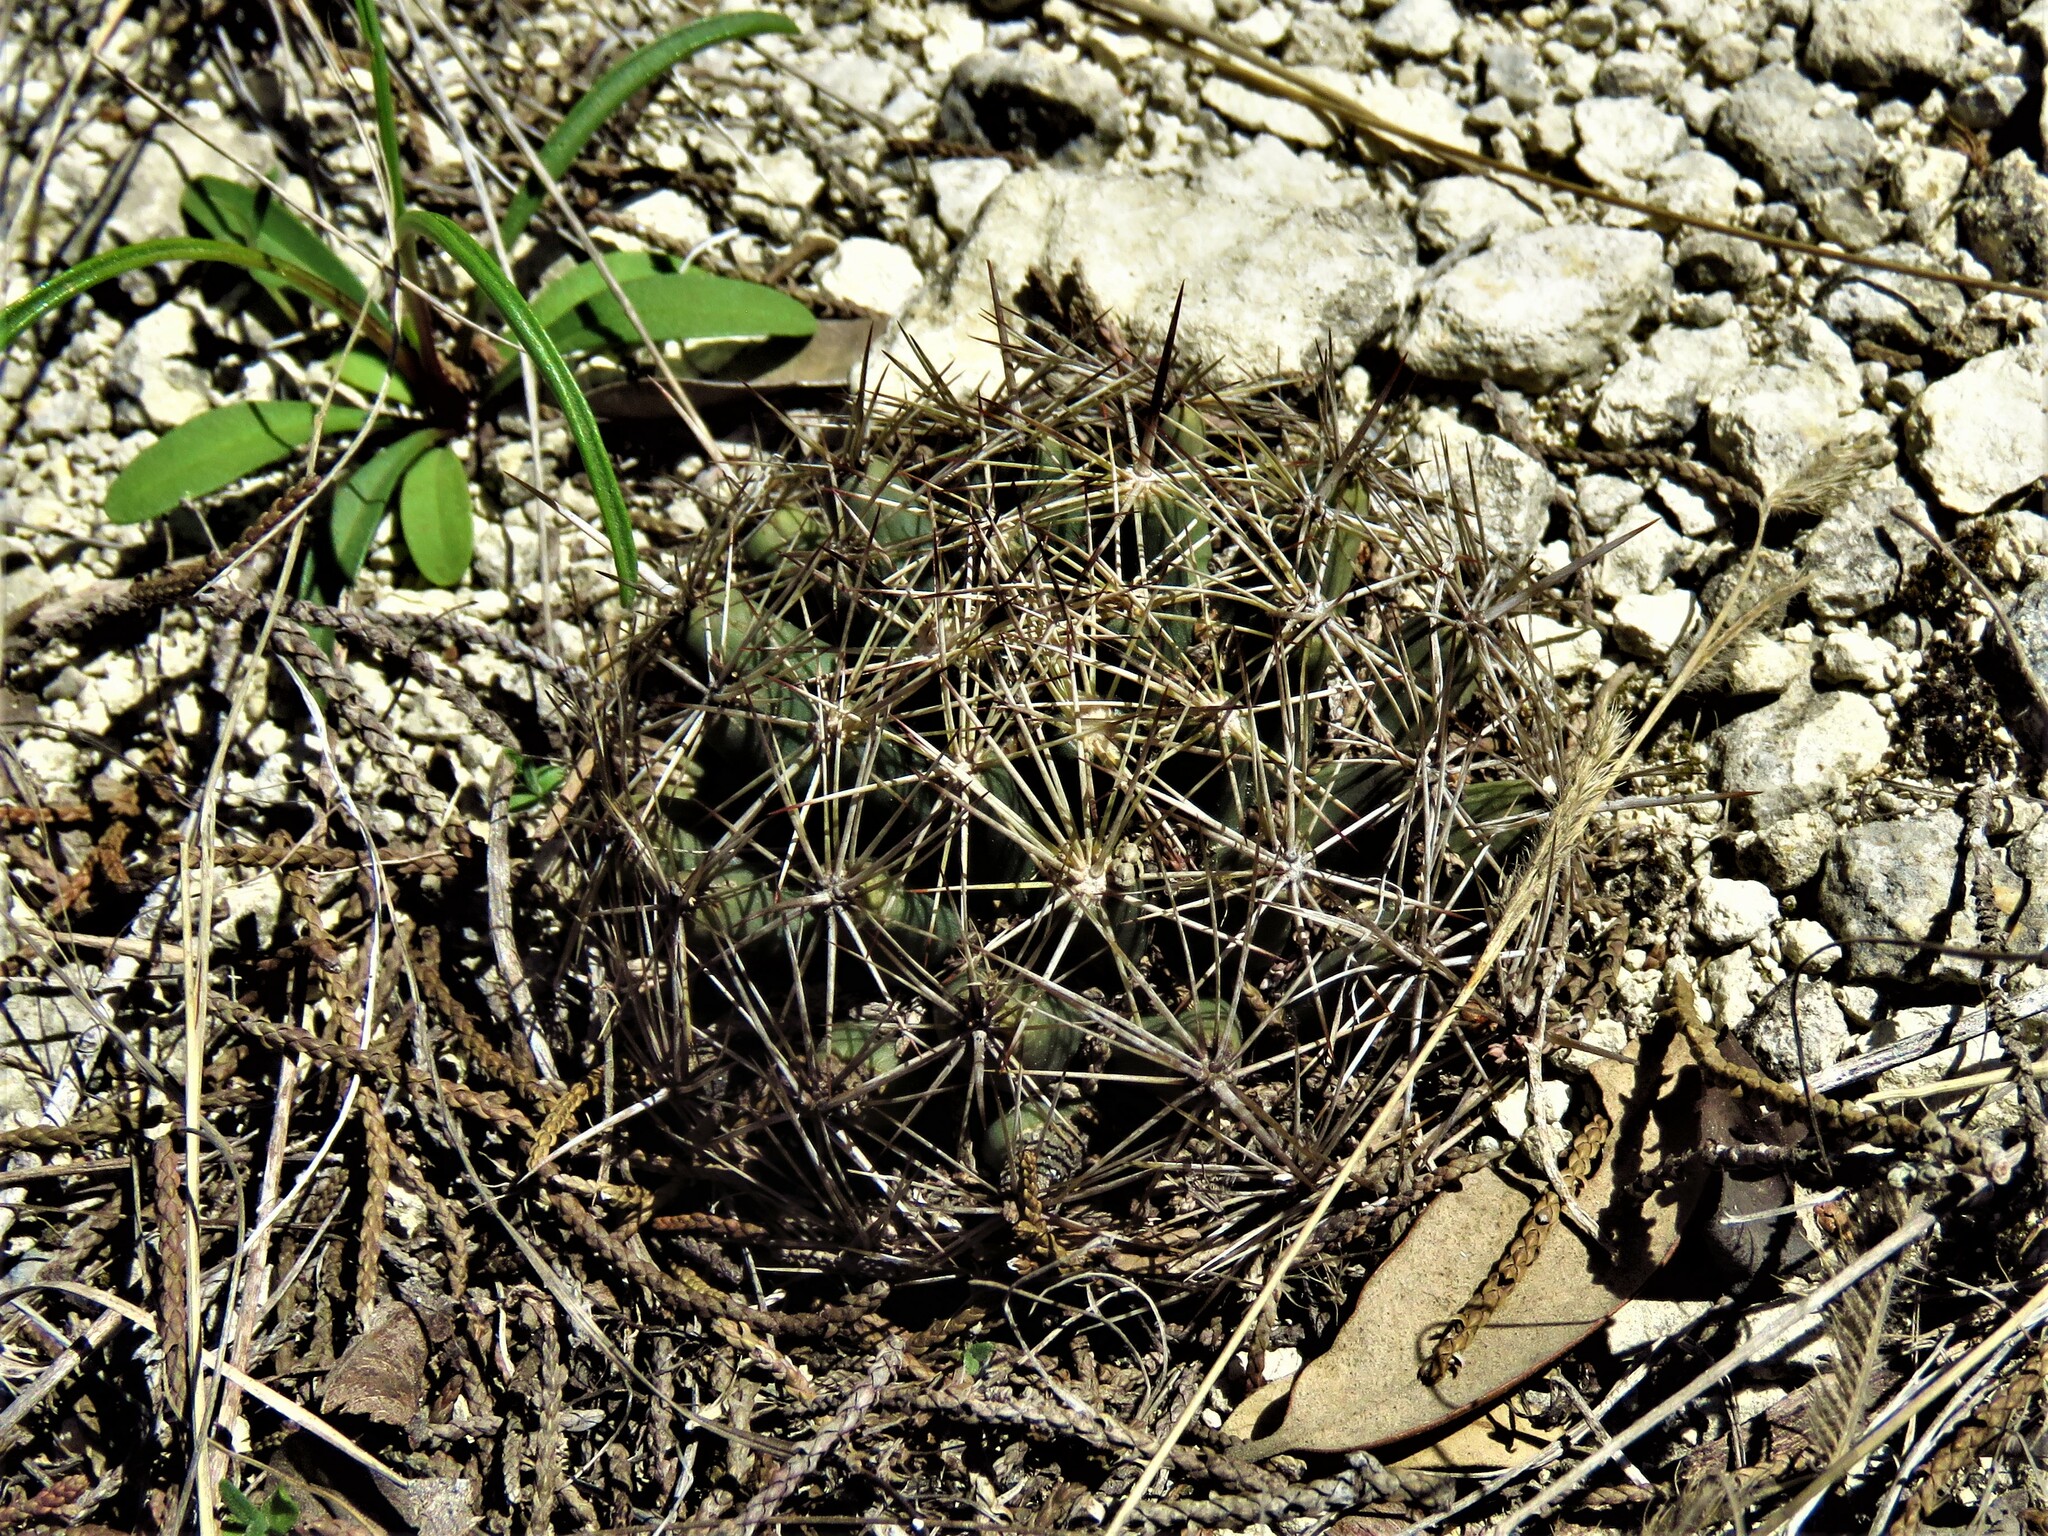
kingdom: Plantae
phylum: Tracheophyta
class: Magnoliopsida
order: Caryophyllales
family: Cactaceae
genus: Coryphantha
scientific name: Coryphantha sulcata
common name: Finger cactus
